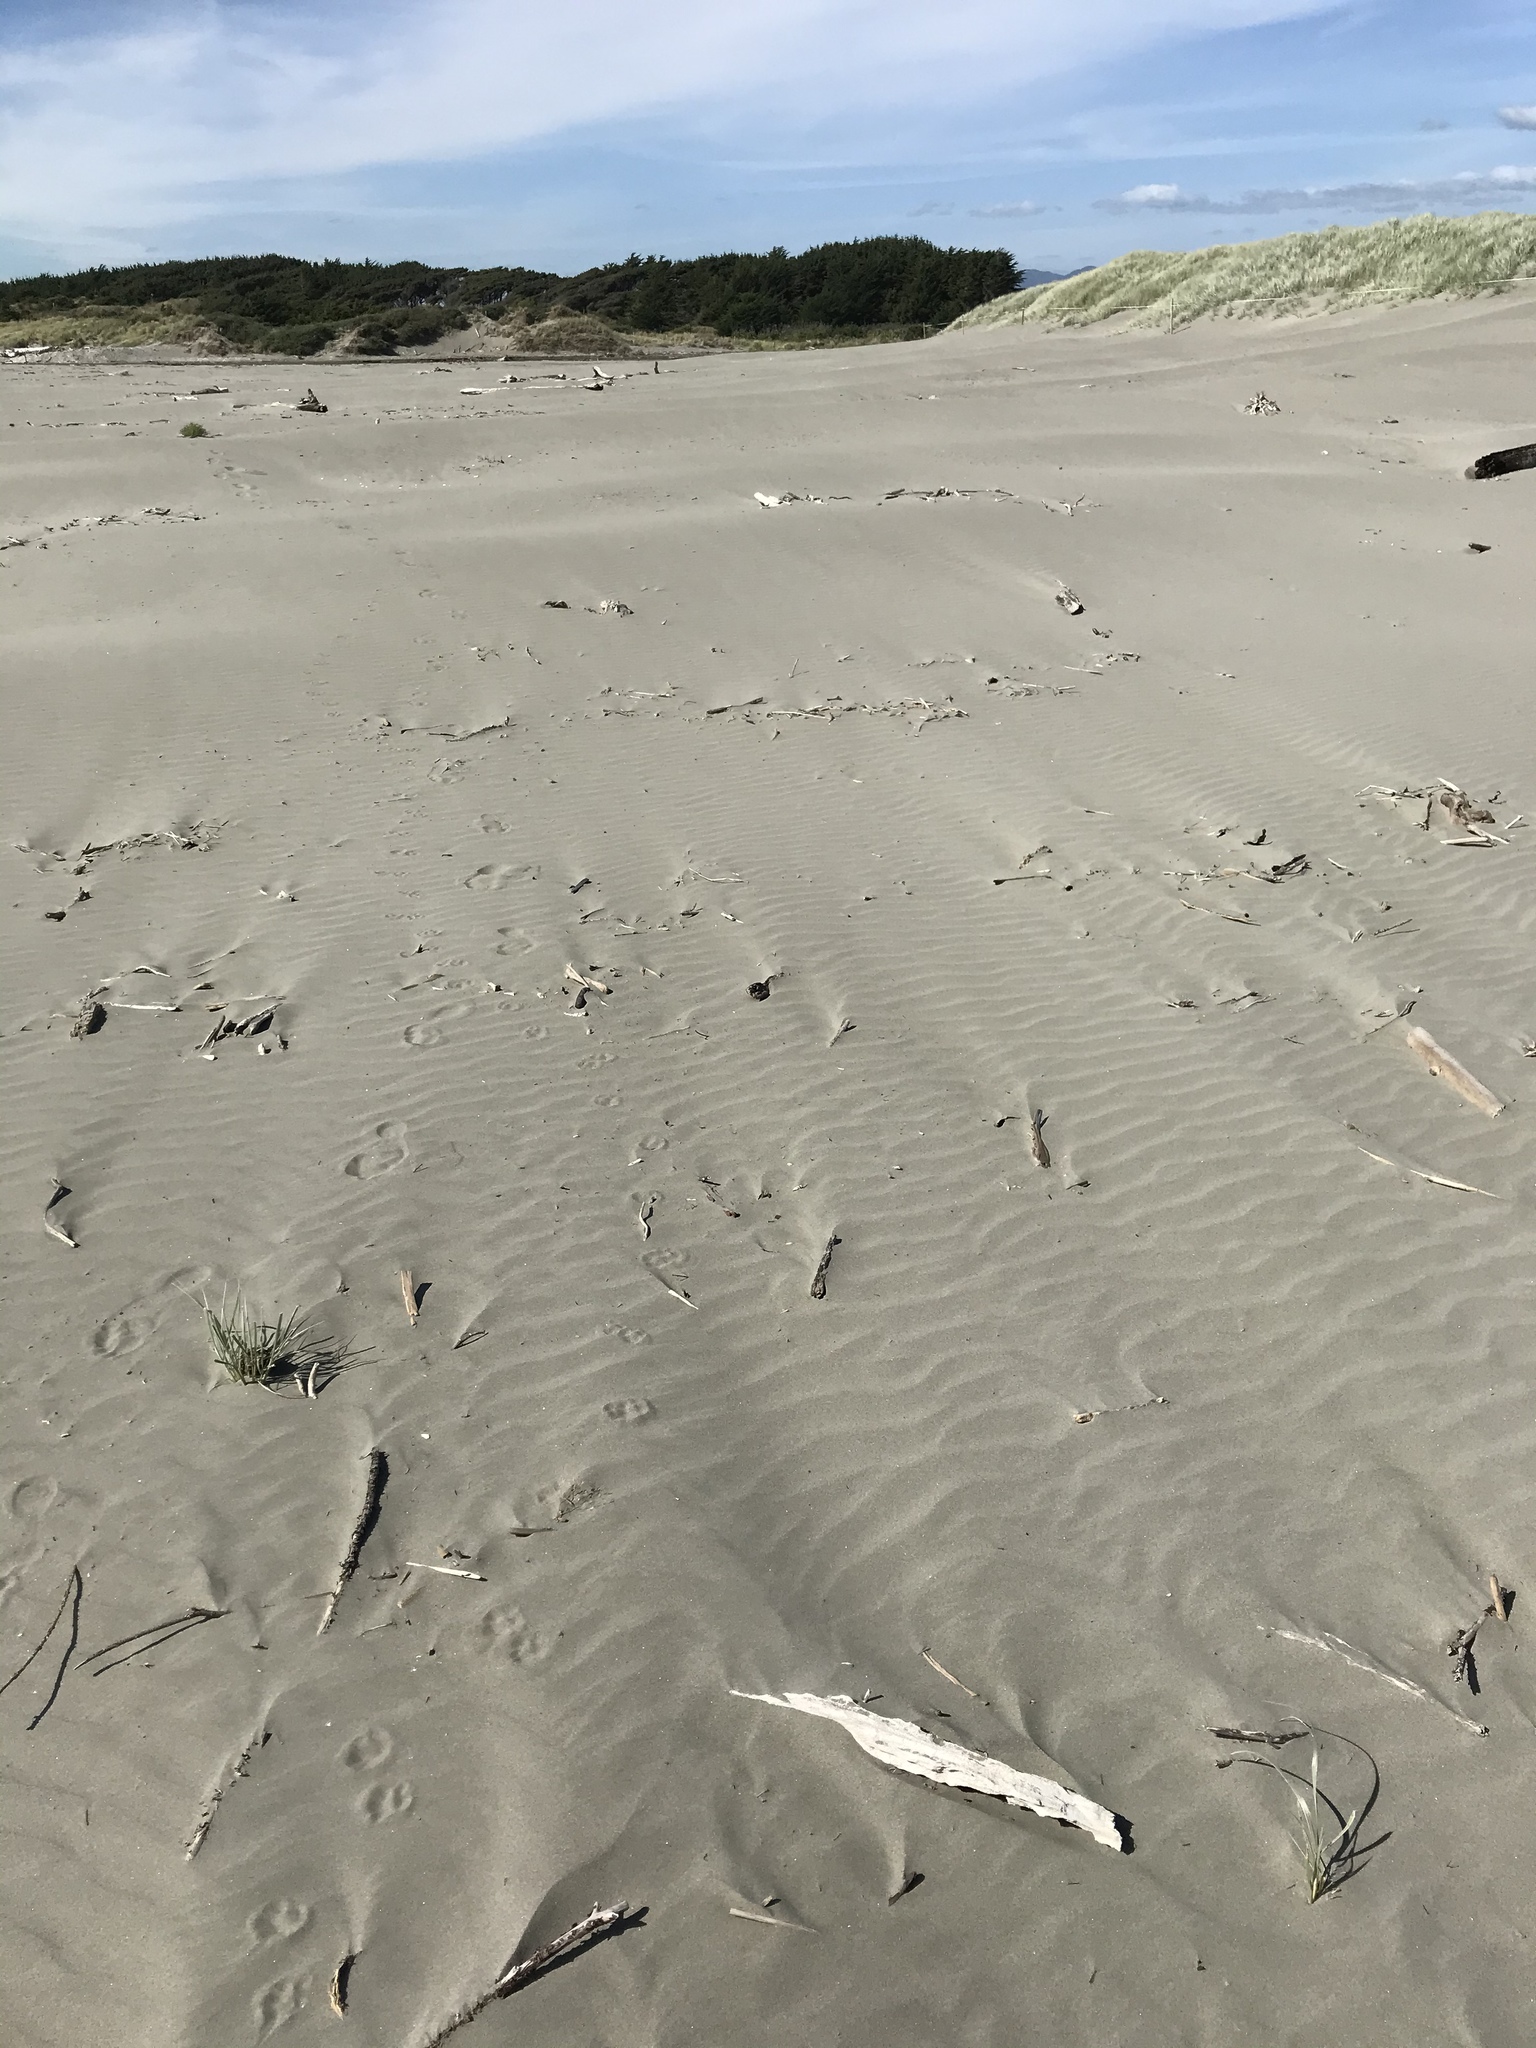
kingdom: Plantae
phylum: Tracheophyta
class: Liliopsida
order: Poales
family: Poaceae
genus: Spinifex
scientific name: Spinifex sericeus
